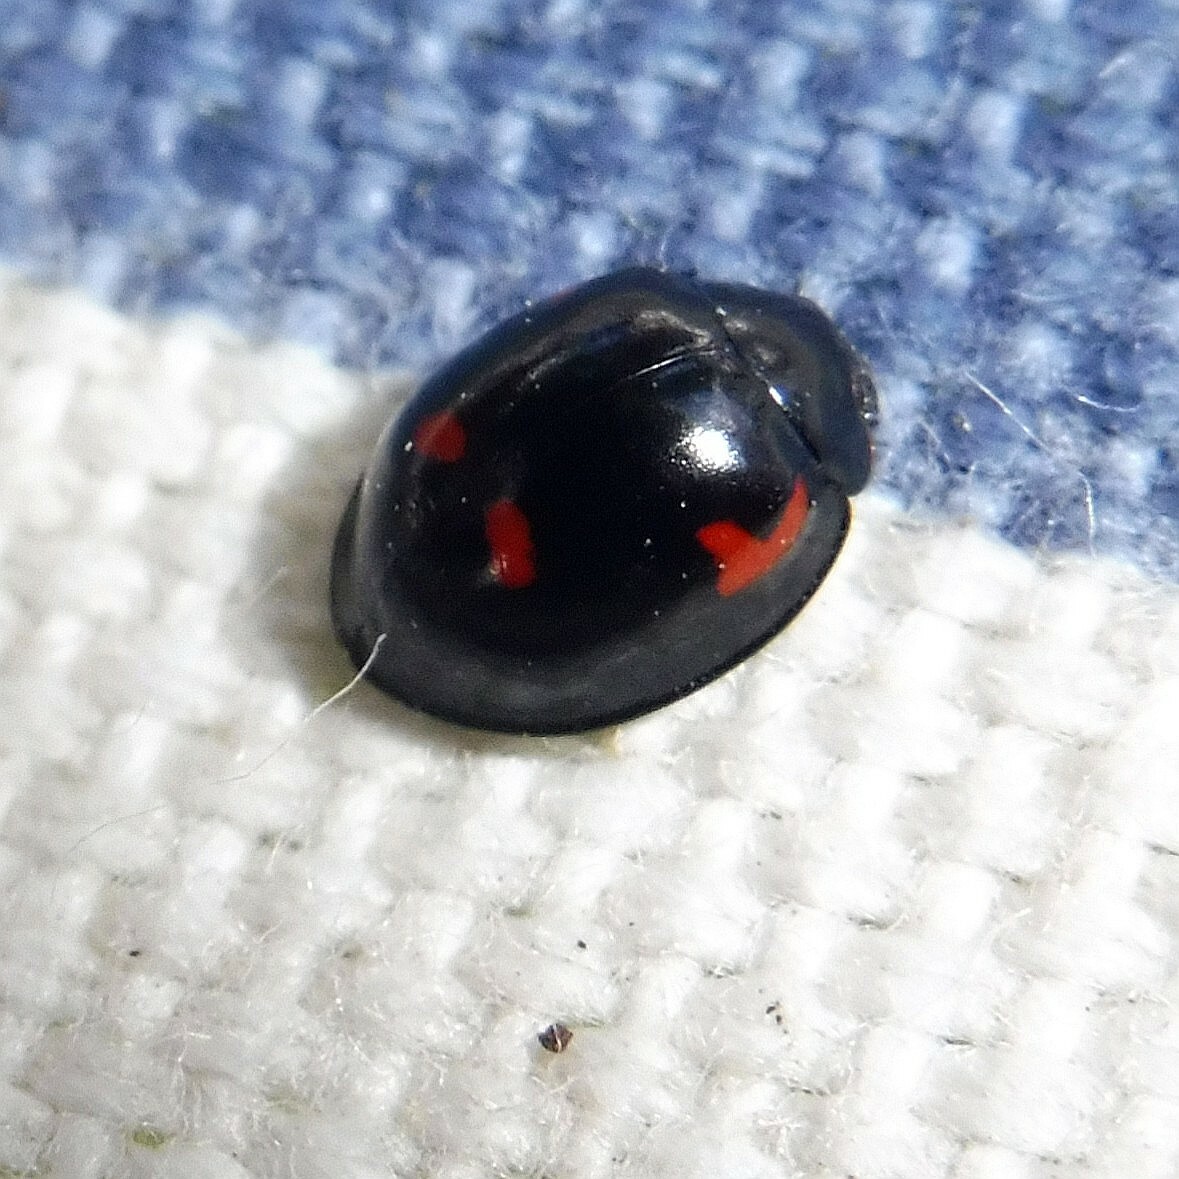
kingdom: Animalia
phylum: Arthropoda
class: Insecta
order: Coleoptera
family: Coccinellidae
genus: Brumus
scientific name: Brumus quadripustulatus
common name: Ladybird beetle
